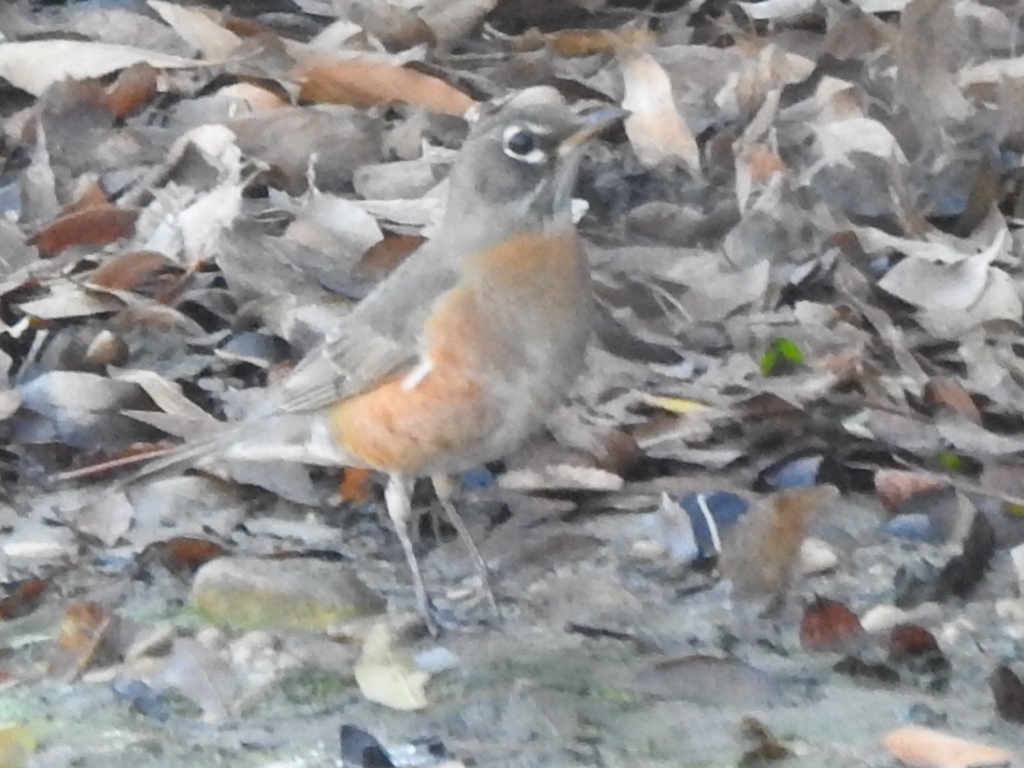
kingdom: Animalia
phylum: Chordata
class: Aves
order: Passeriformes
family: Turdidae
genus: Turdus
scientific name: Turdus migratorius
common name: American robin
